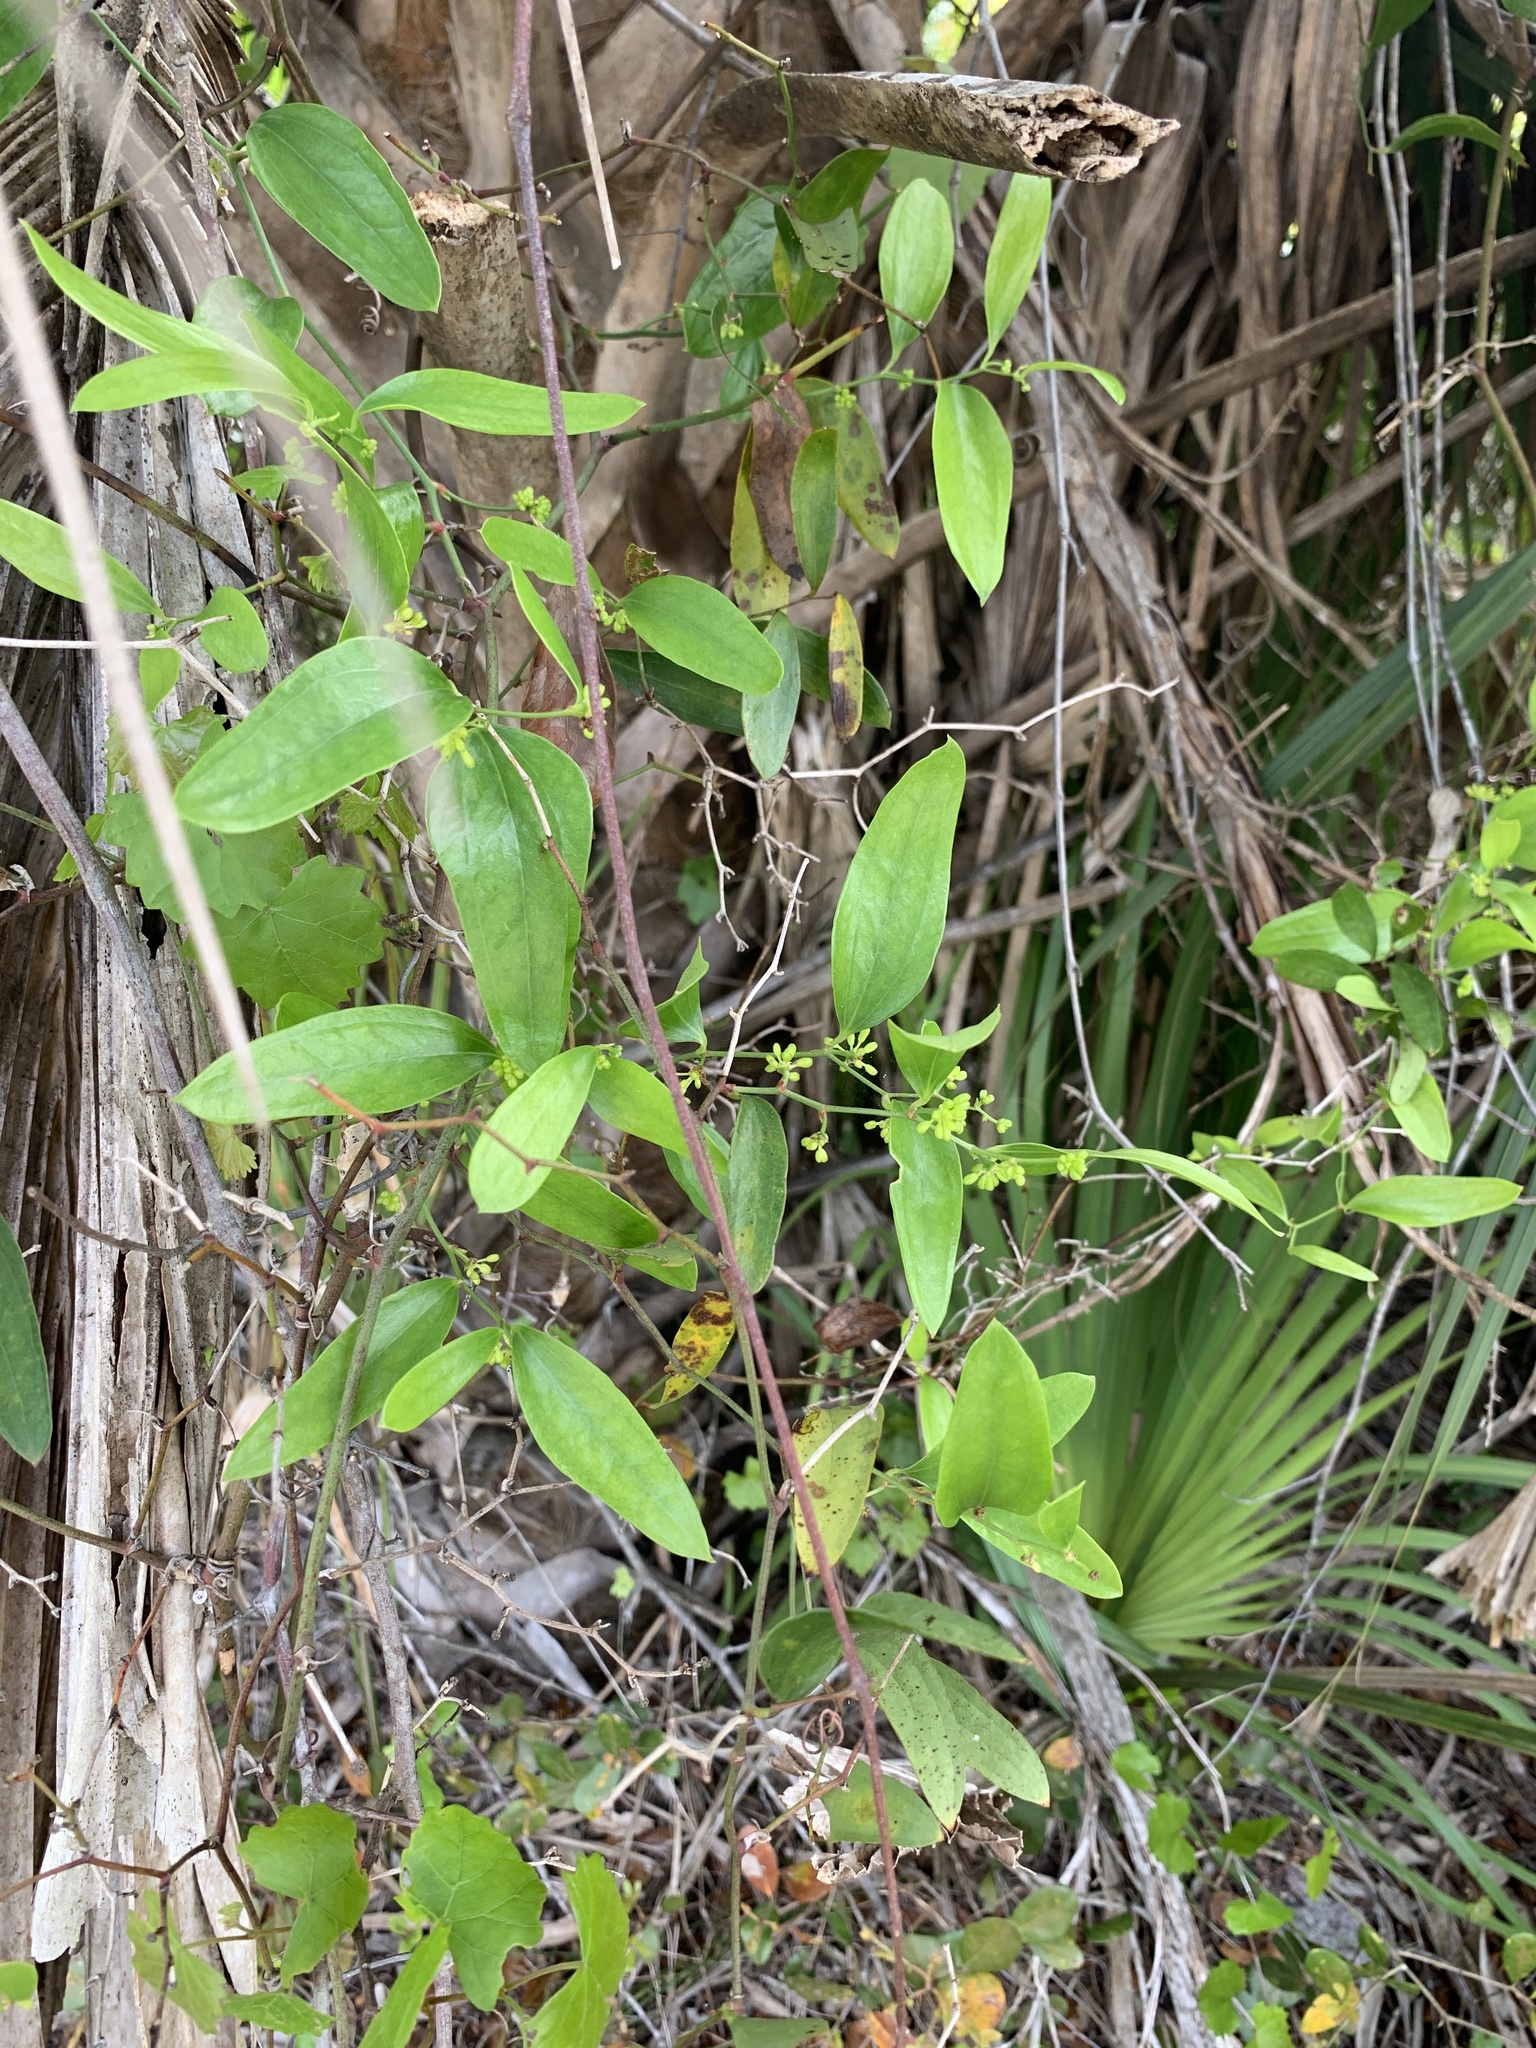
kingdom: Plantae
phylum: Tracheophyta
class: Liliopsida
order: Liliales
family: Smilacaceae
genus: Smilax
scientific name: Smilax auriculata
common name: Wild bamboo
